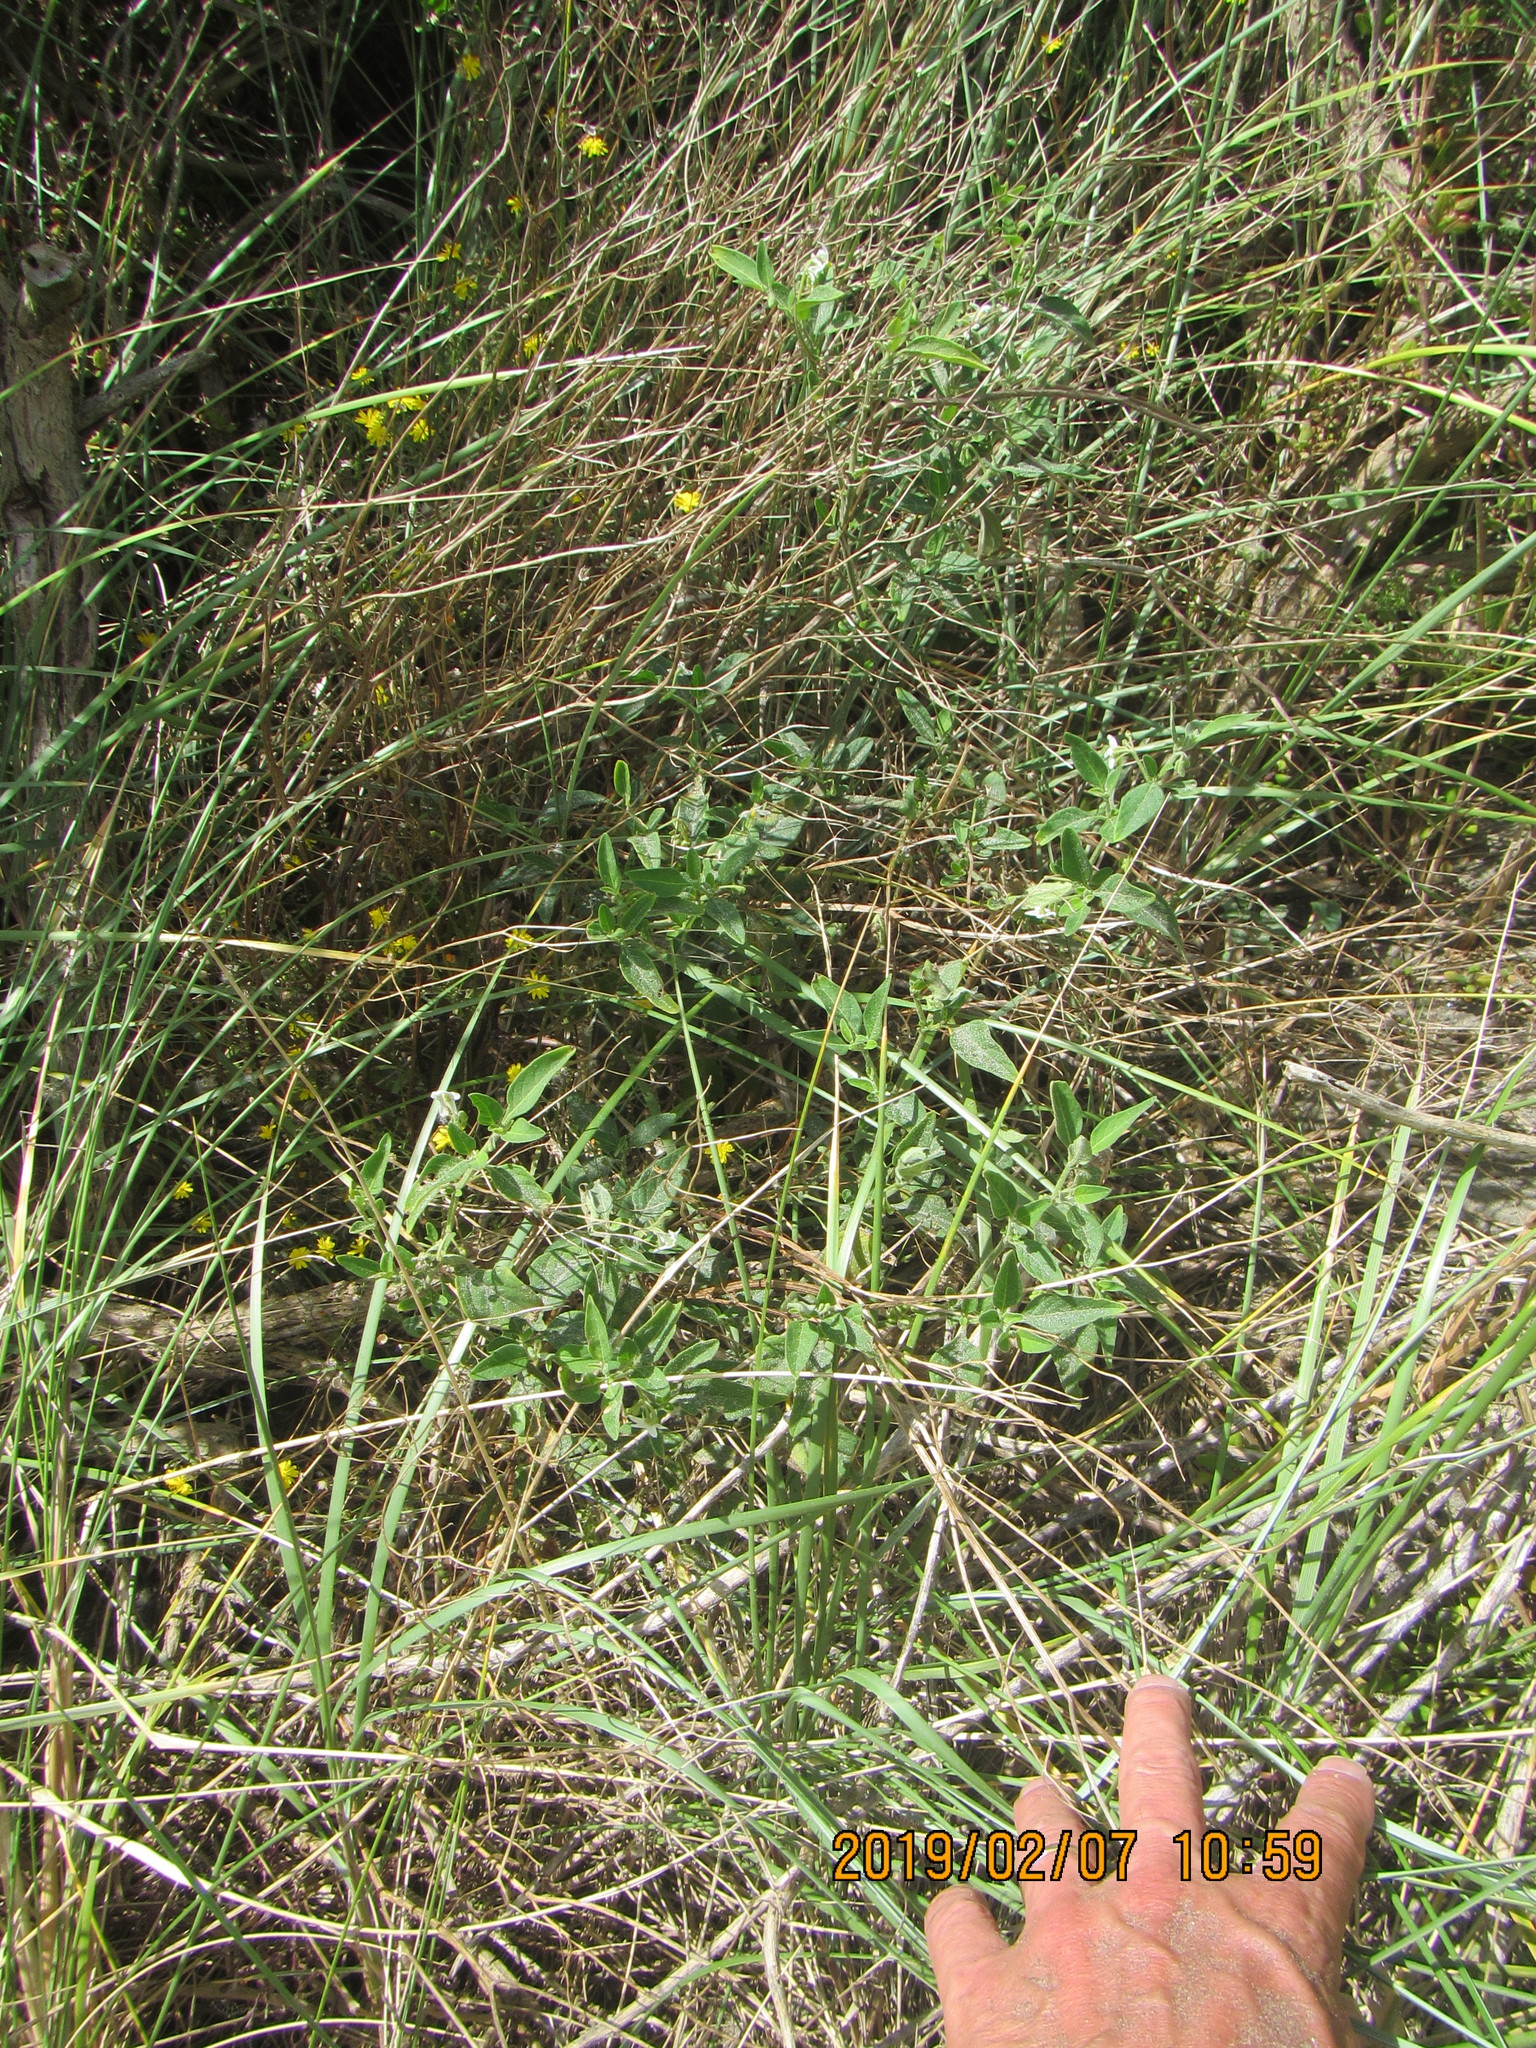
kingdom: Plantae
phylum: Tracheophyta
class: Magnoliopsida
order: Solanales
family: Solanaceae
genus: Solanum
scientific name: Solanum chenopodioides
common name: Tall nightshade
